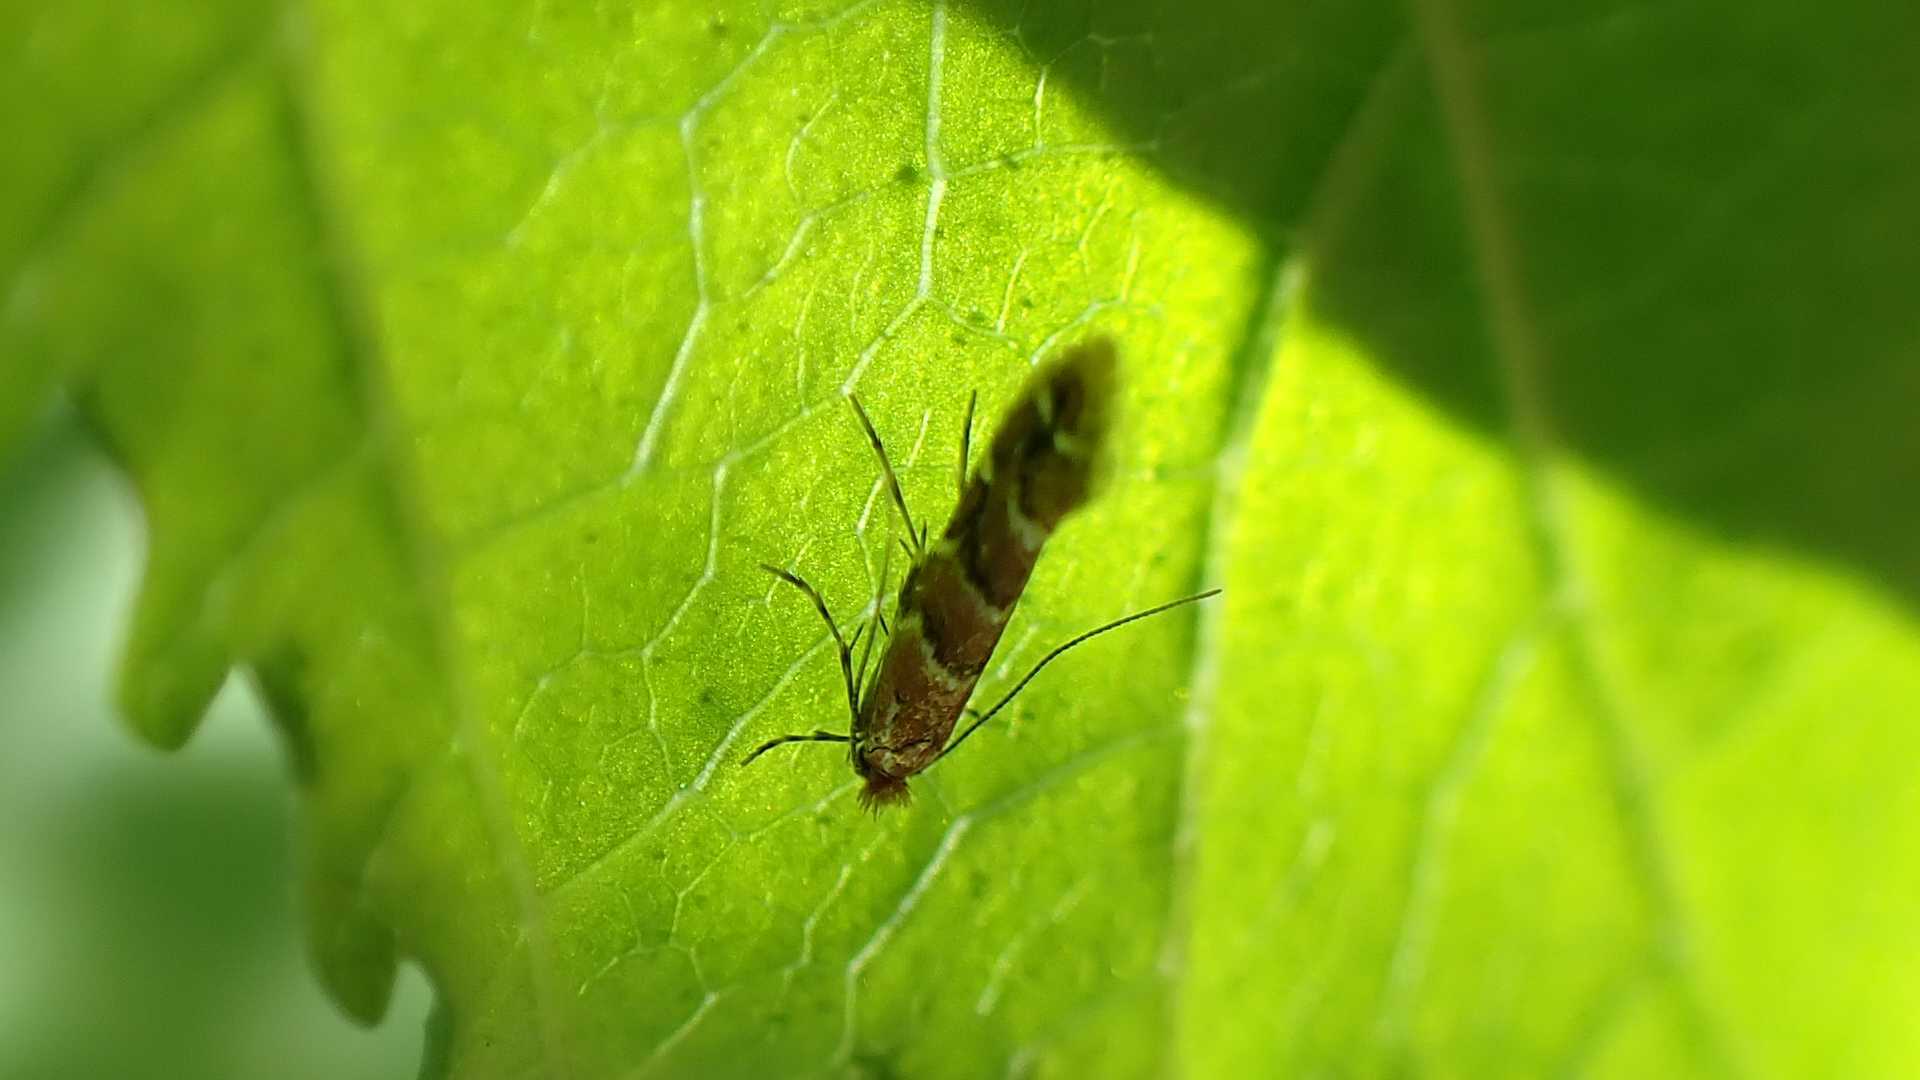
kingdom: Animalia
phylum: Arthropoda
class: Insecta
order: Lepidoptera
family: Gracillariidae
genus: Cameraria
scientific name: Cameraria ohridella
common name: Horse-chestnut leaf-miner
